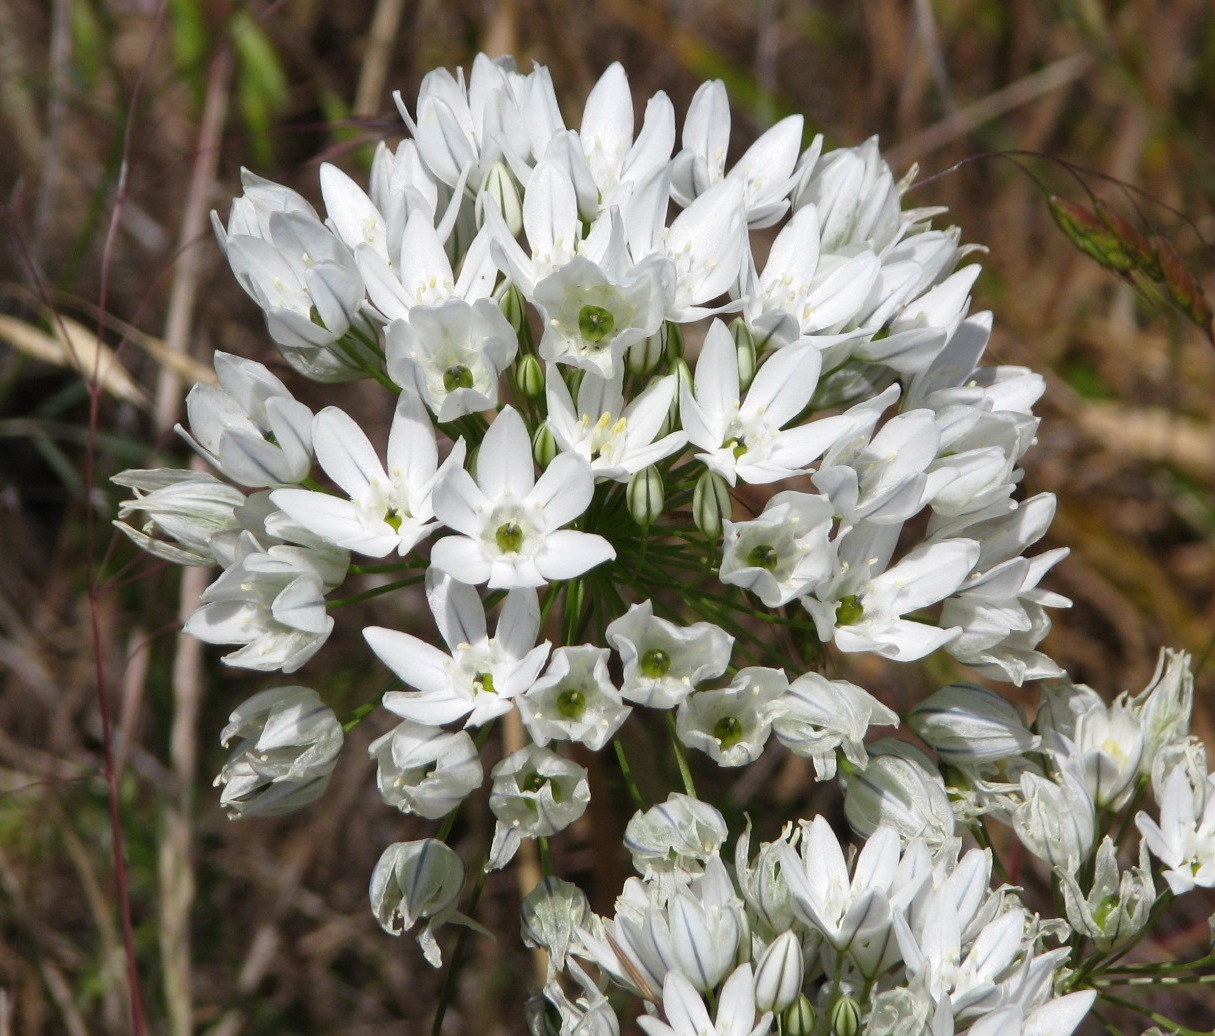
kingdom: Plantae
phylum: Tracheophyta
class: Liliopsida
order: Asparagales
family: Asparagaceae
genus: Triteleia
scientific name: Triteleia hyacinthina
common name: White brodiaea
